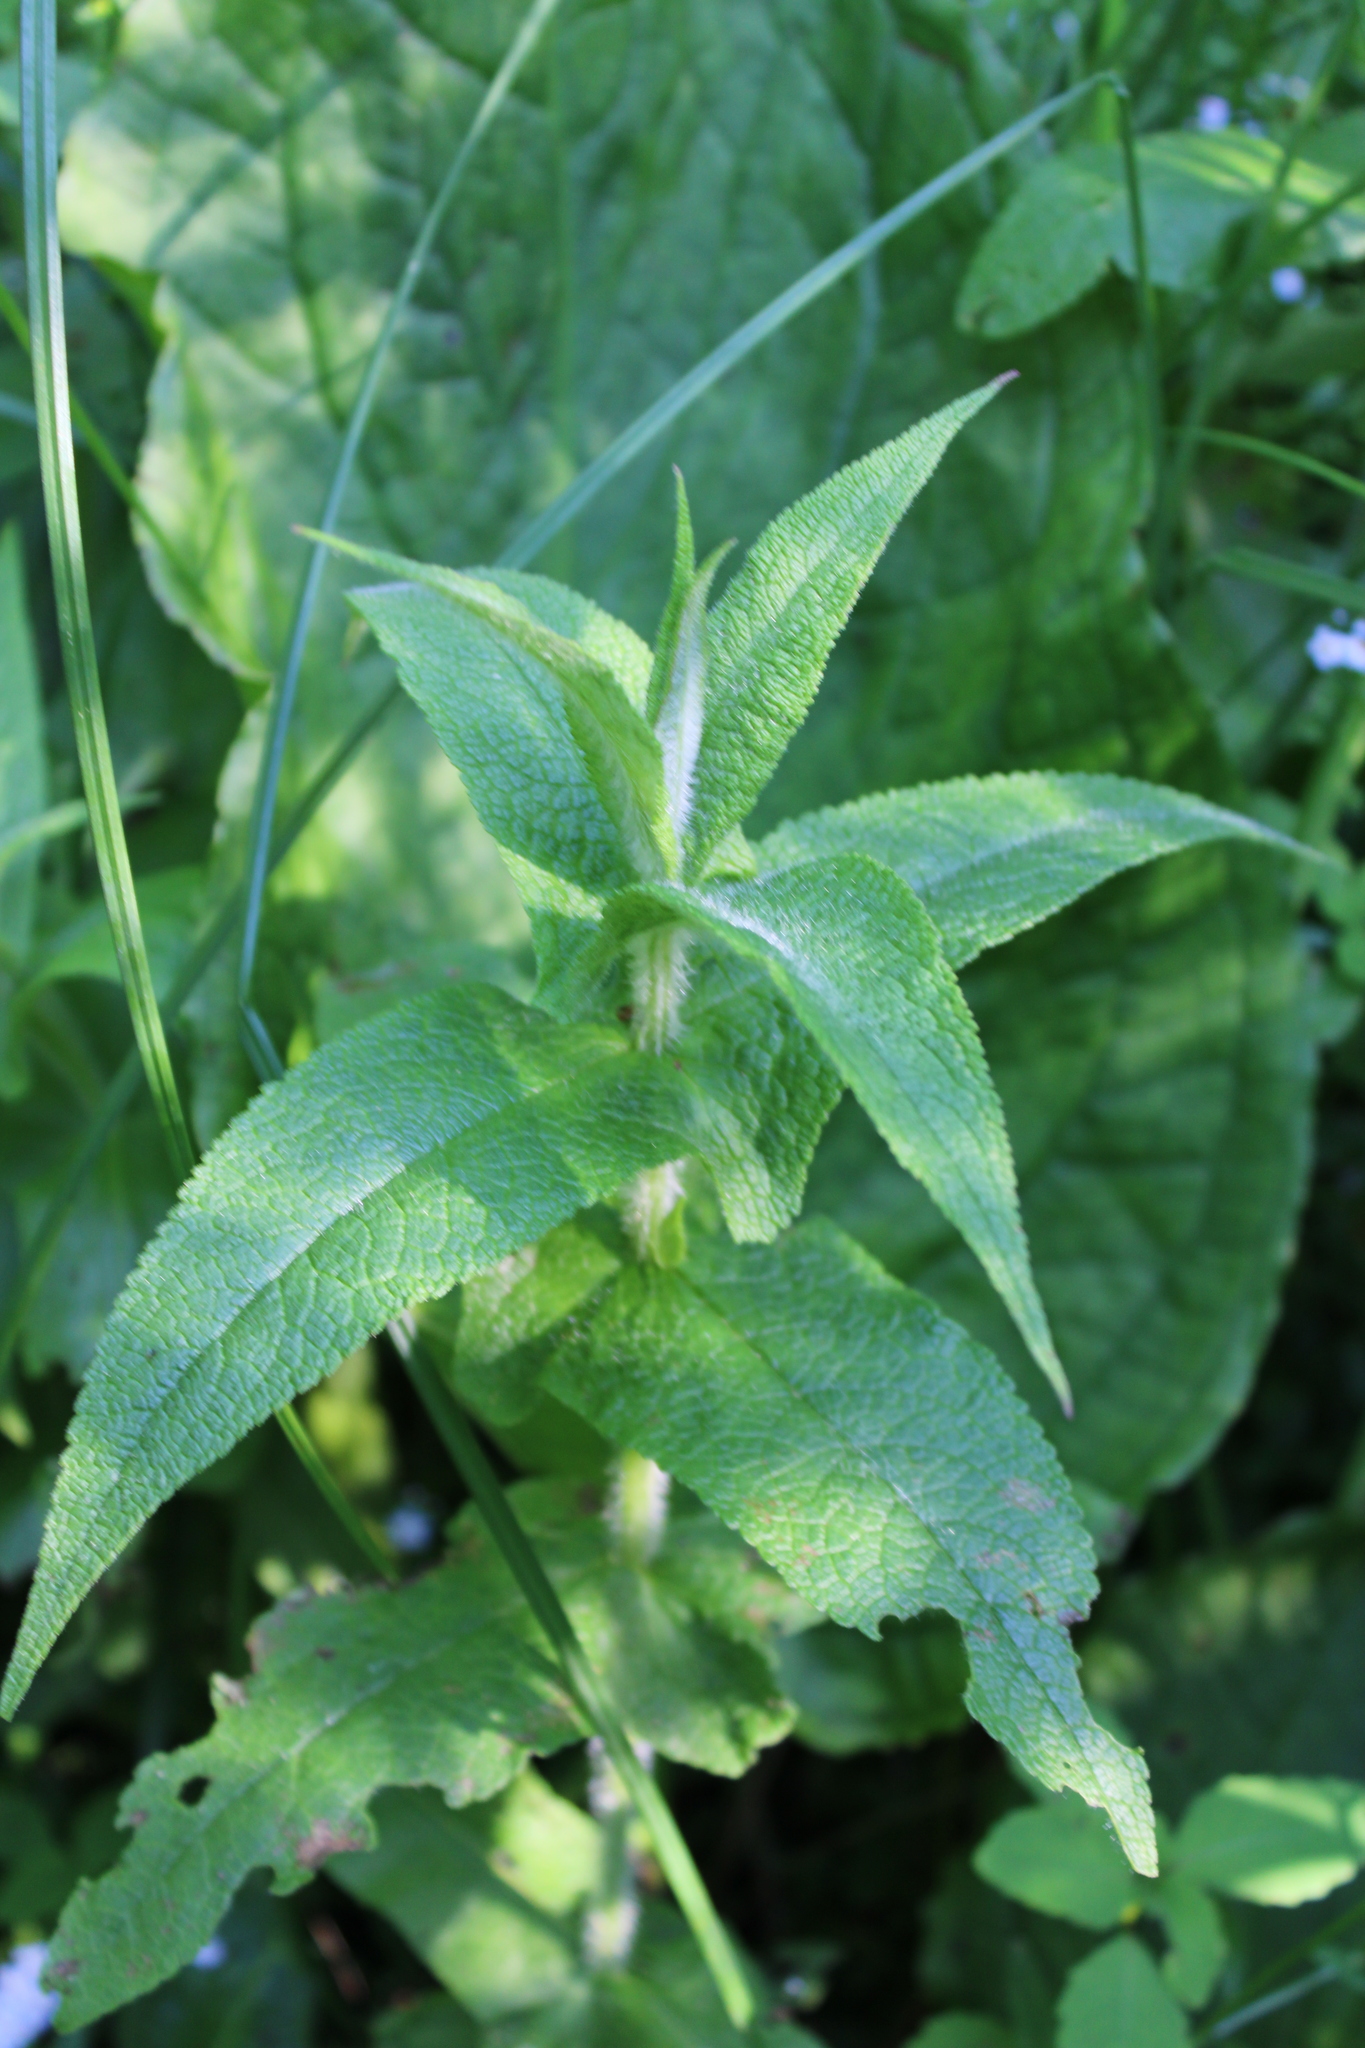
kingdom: Plantae
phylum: Tracheophyta
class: Magnoliopsida
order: Asterales
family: Asteraceae
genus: Eupatorium
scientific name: Eupatorium perfoliatum
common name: Boneset
